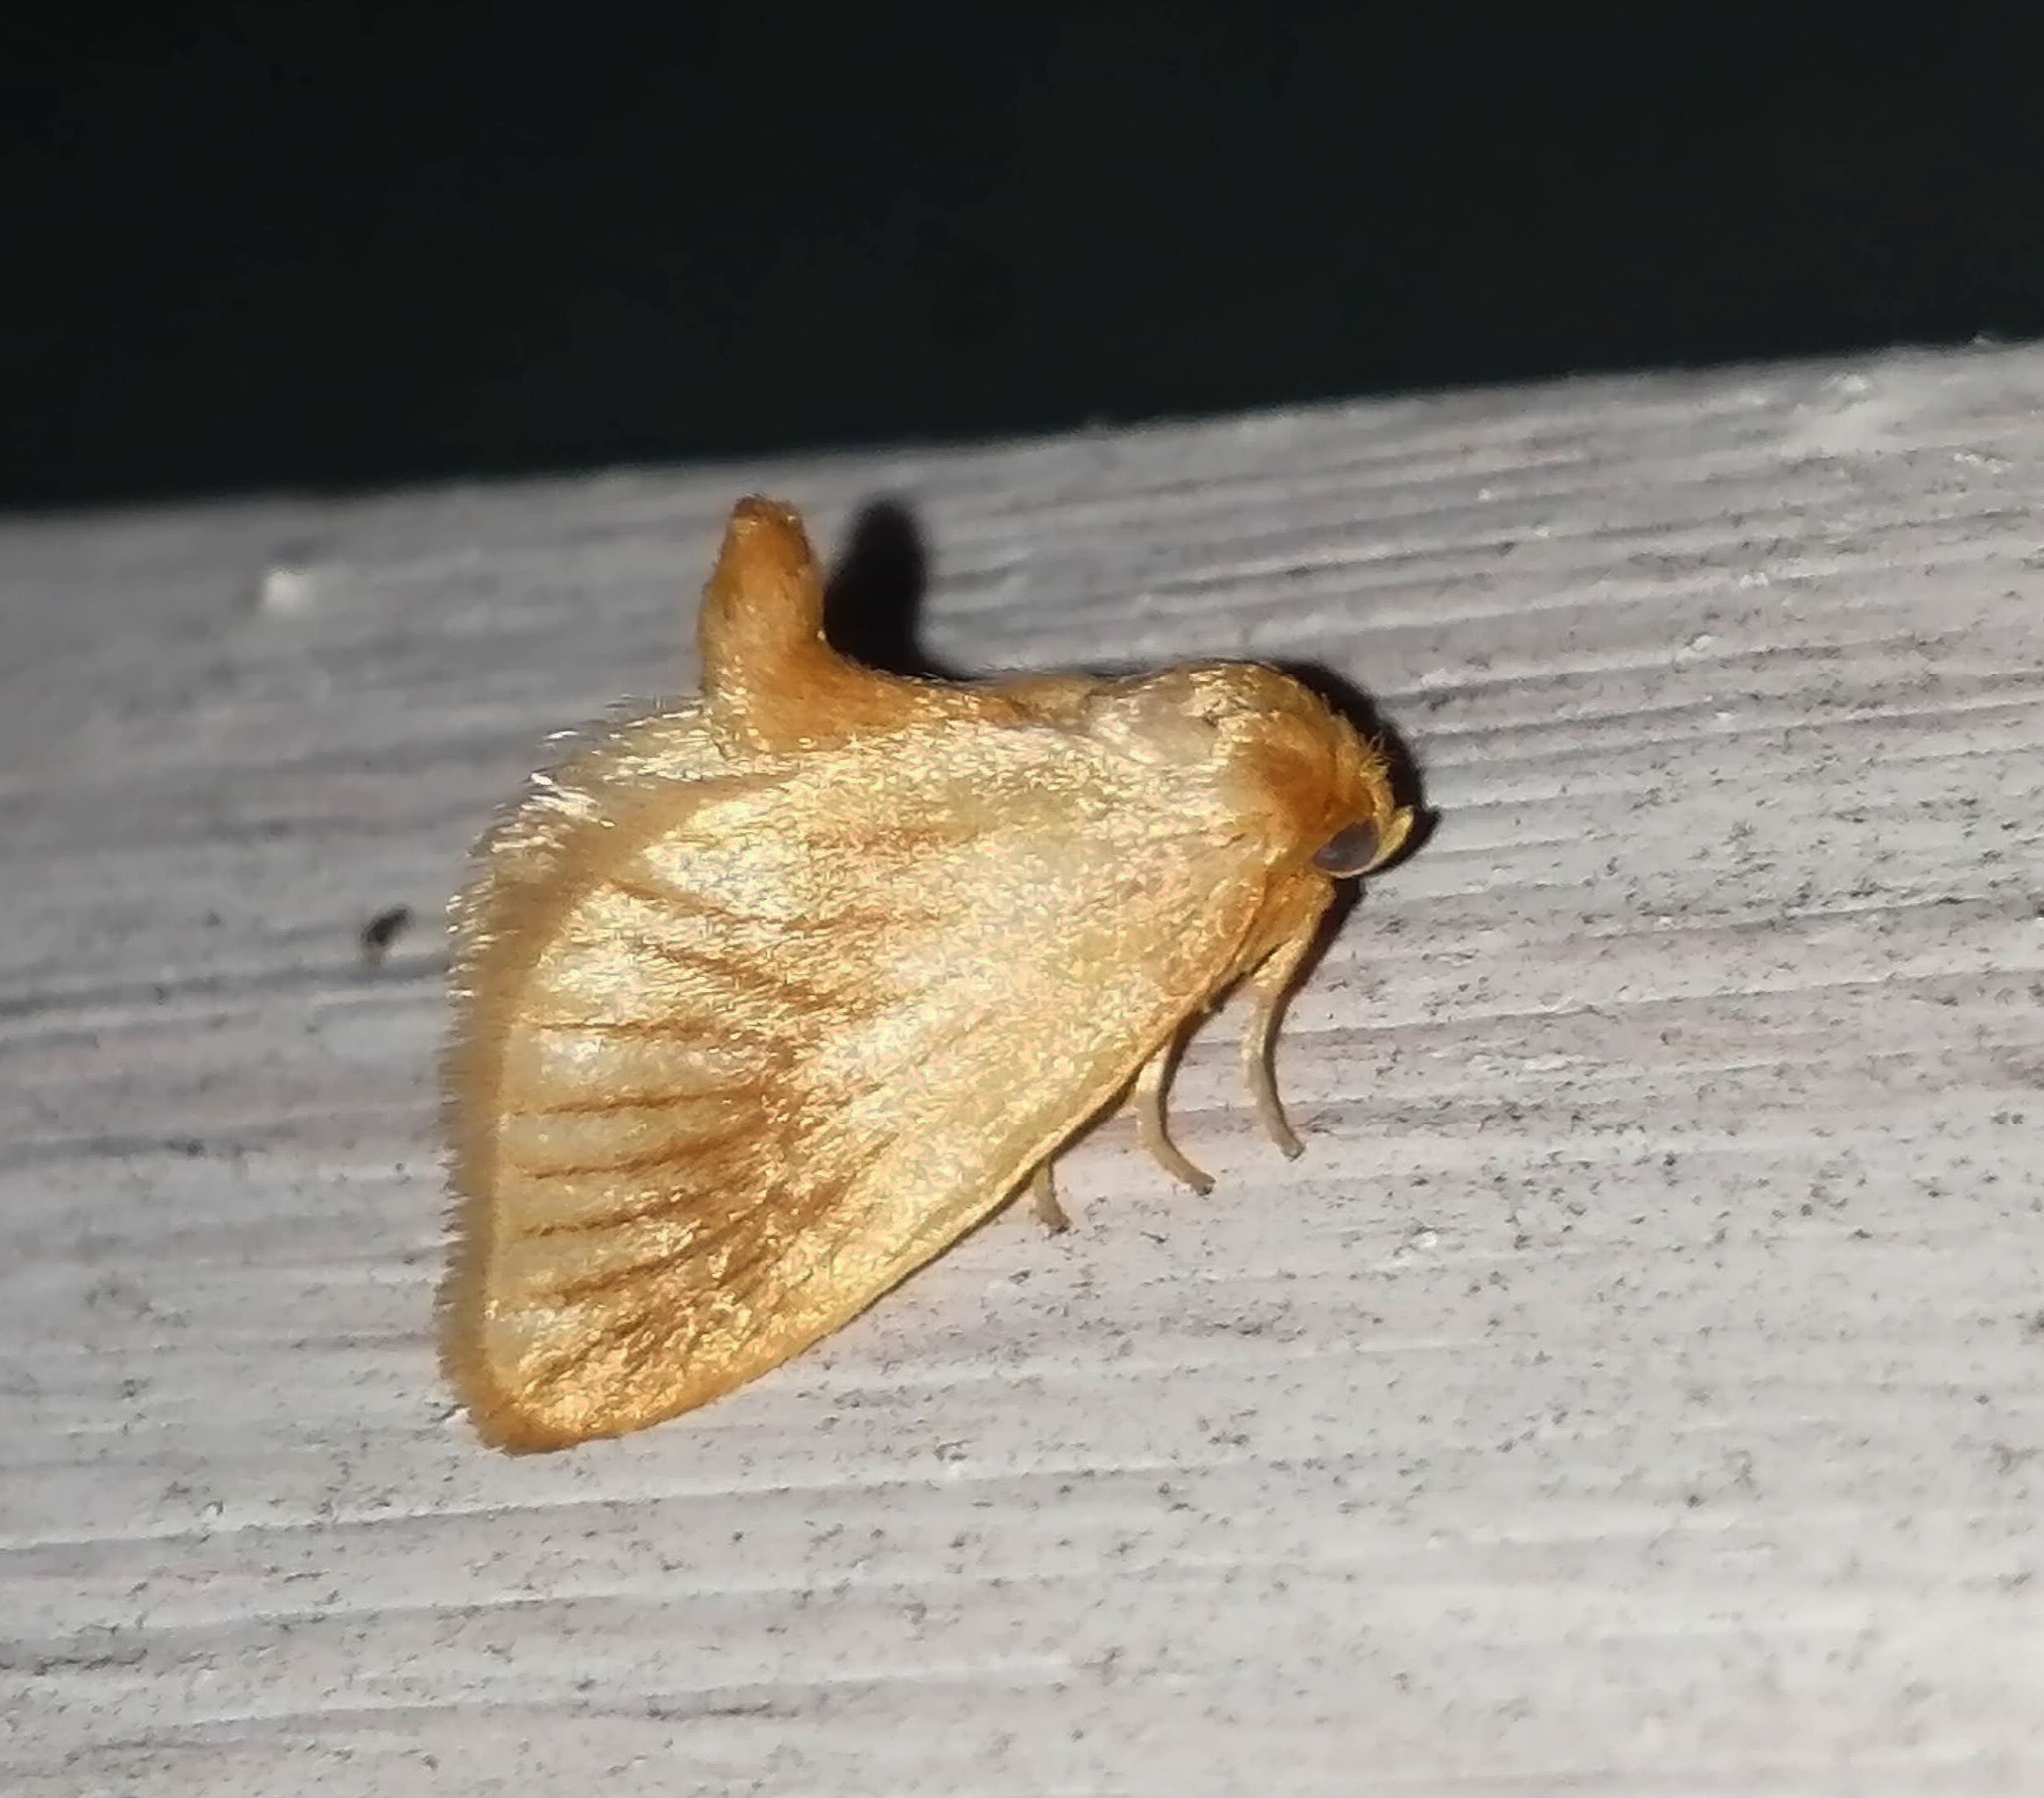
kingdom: Animalia
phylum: Arthropoda
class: Insecta
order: Lepidoptera
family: Limacodidae
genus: Tortricidia
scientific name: Tortricidia testacea
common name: Early button slug moth
